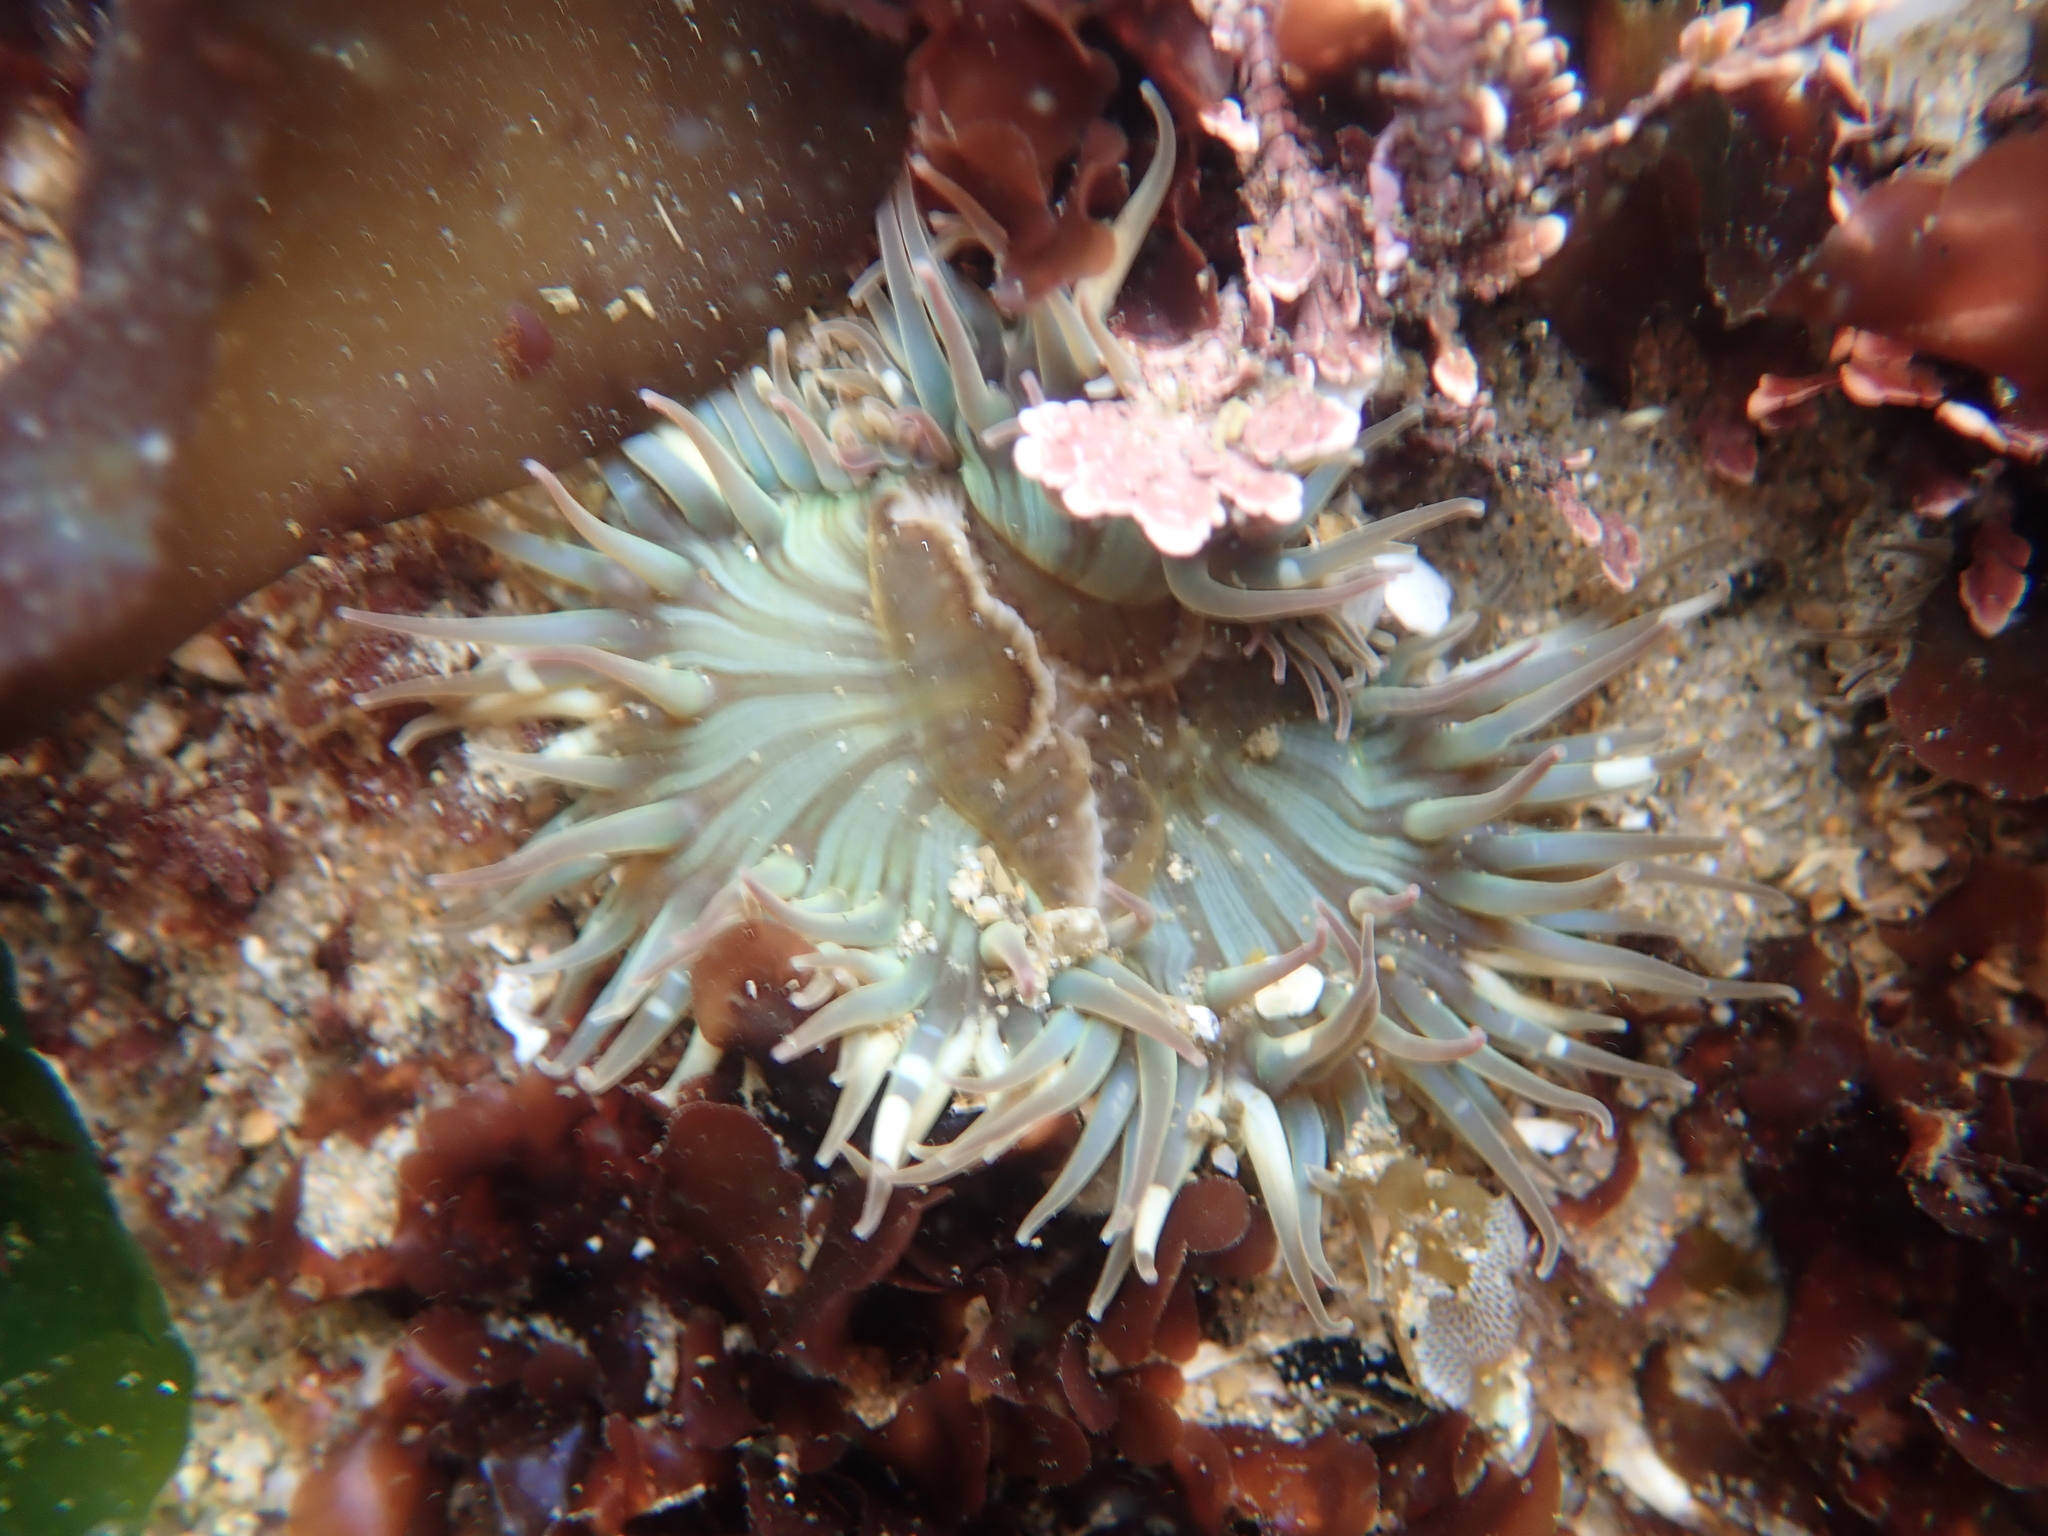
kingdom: Animalia
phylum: Cnidaria
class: Anthozoa
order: Actiniaria
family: Actiniidae
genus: Anthopleura
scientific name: Anthopleura sola
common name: Sun anemone
